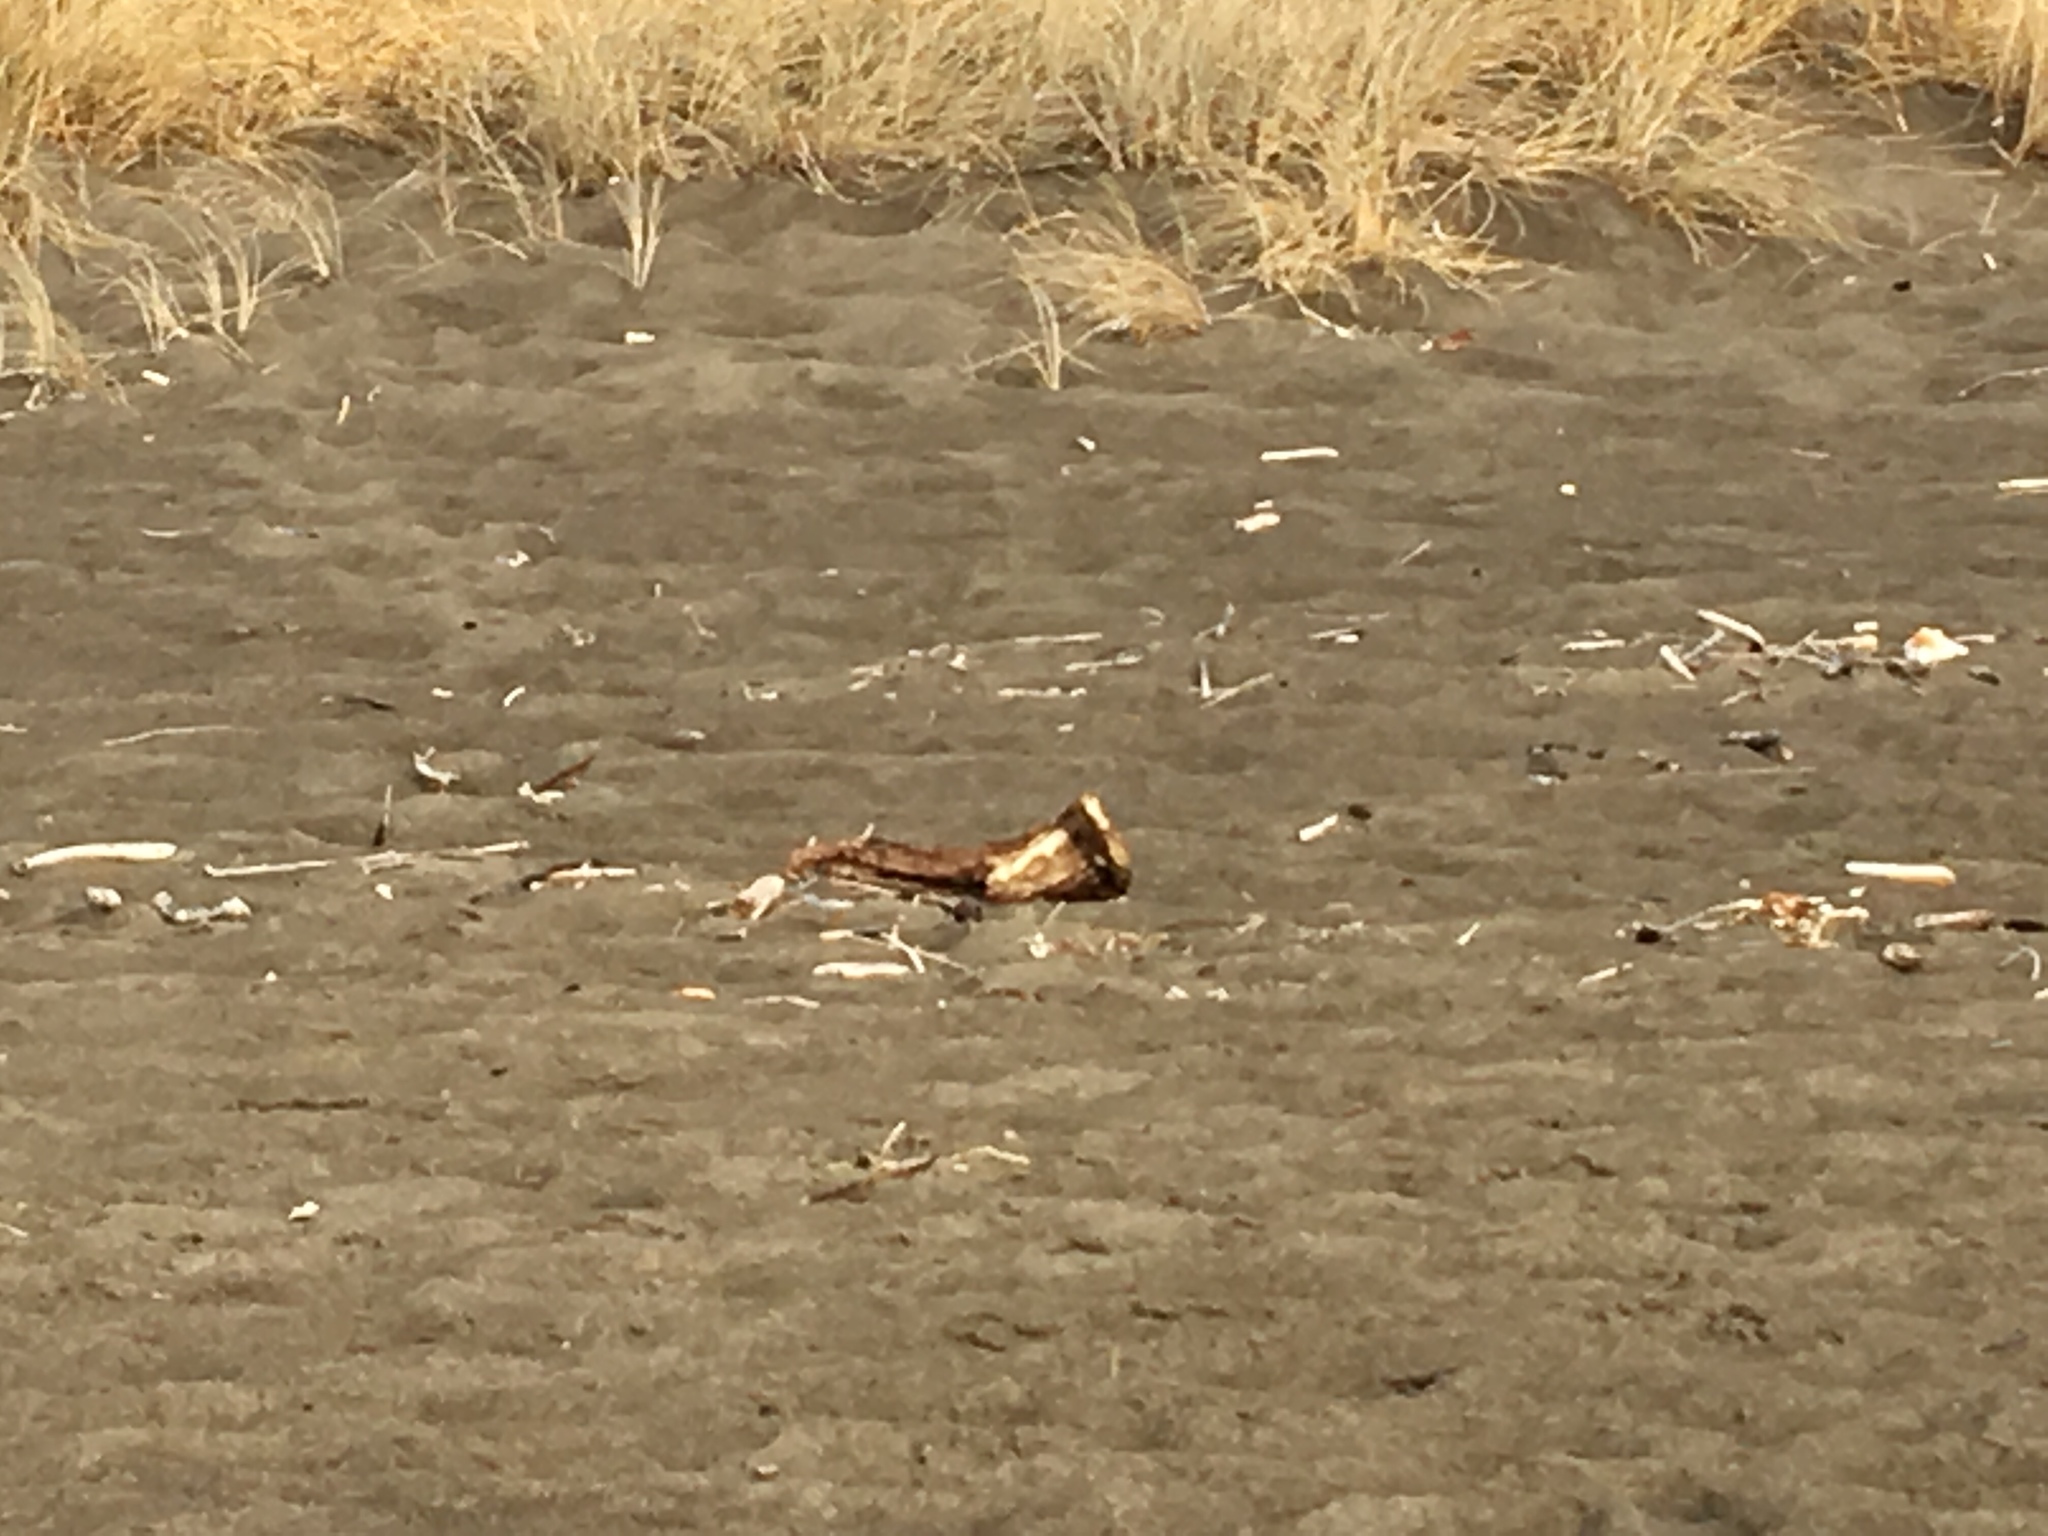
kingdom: Animalia
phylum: Chordata
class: Aves
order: Charadriiformes
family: Charadriidae
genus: Charadrius
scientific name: Charadrius semipalmatus
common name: Semipalmated plover
